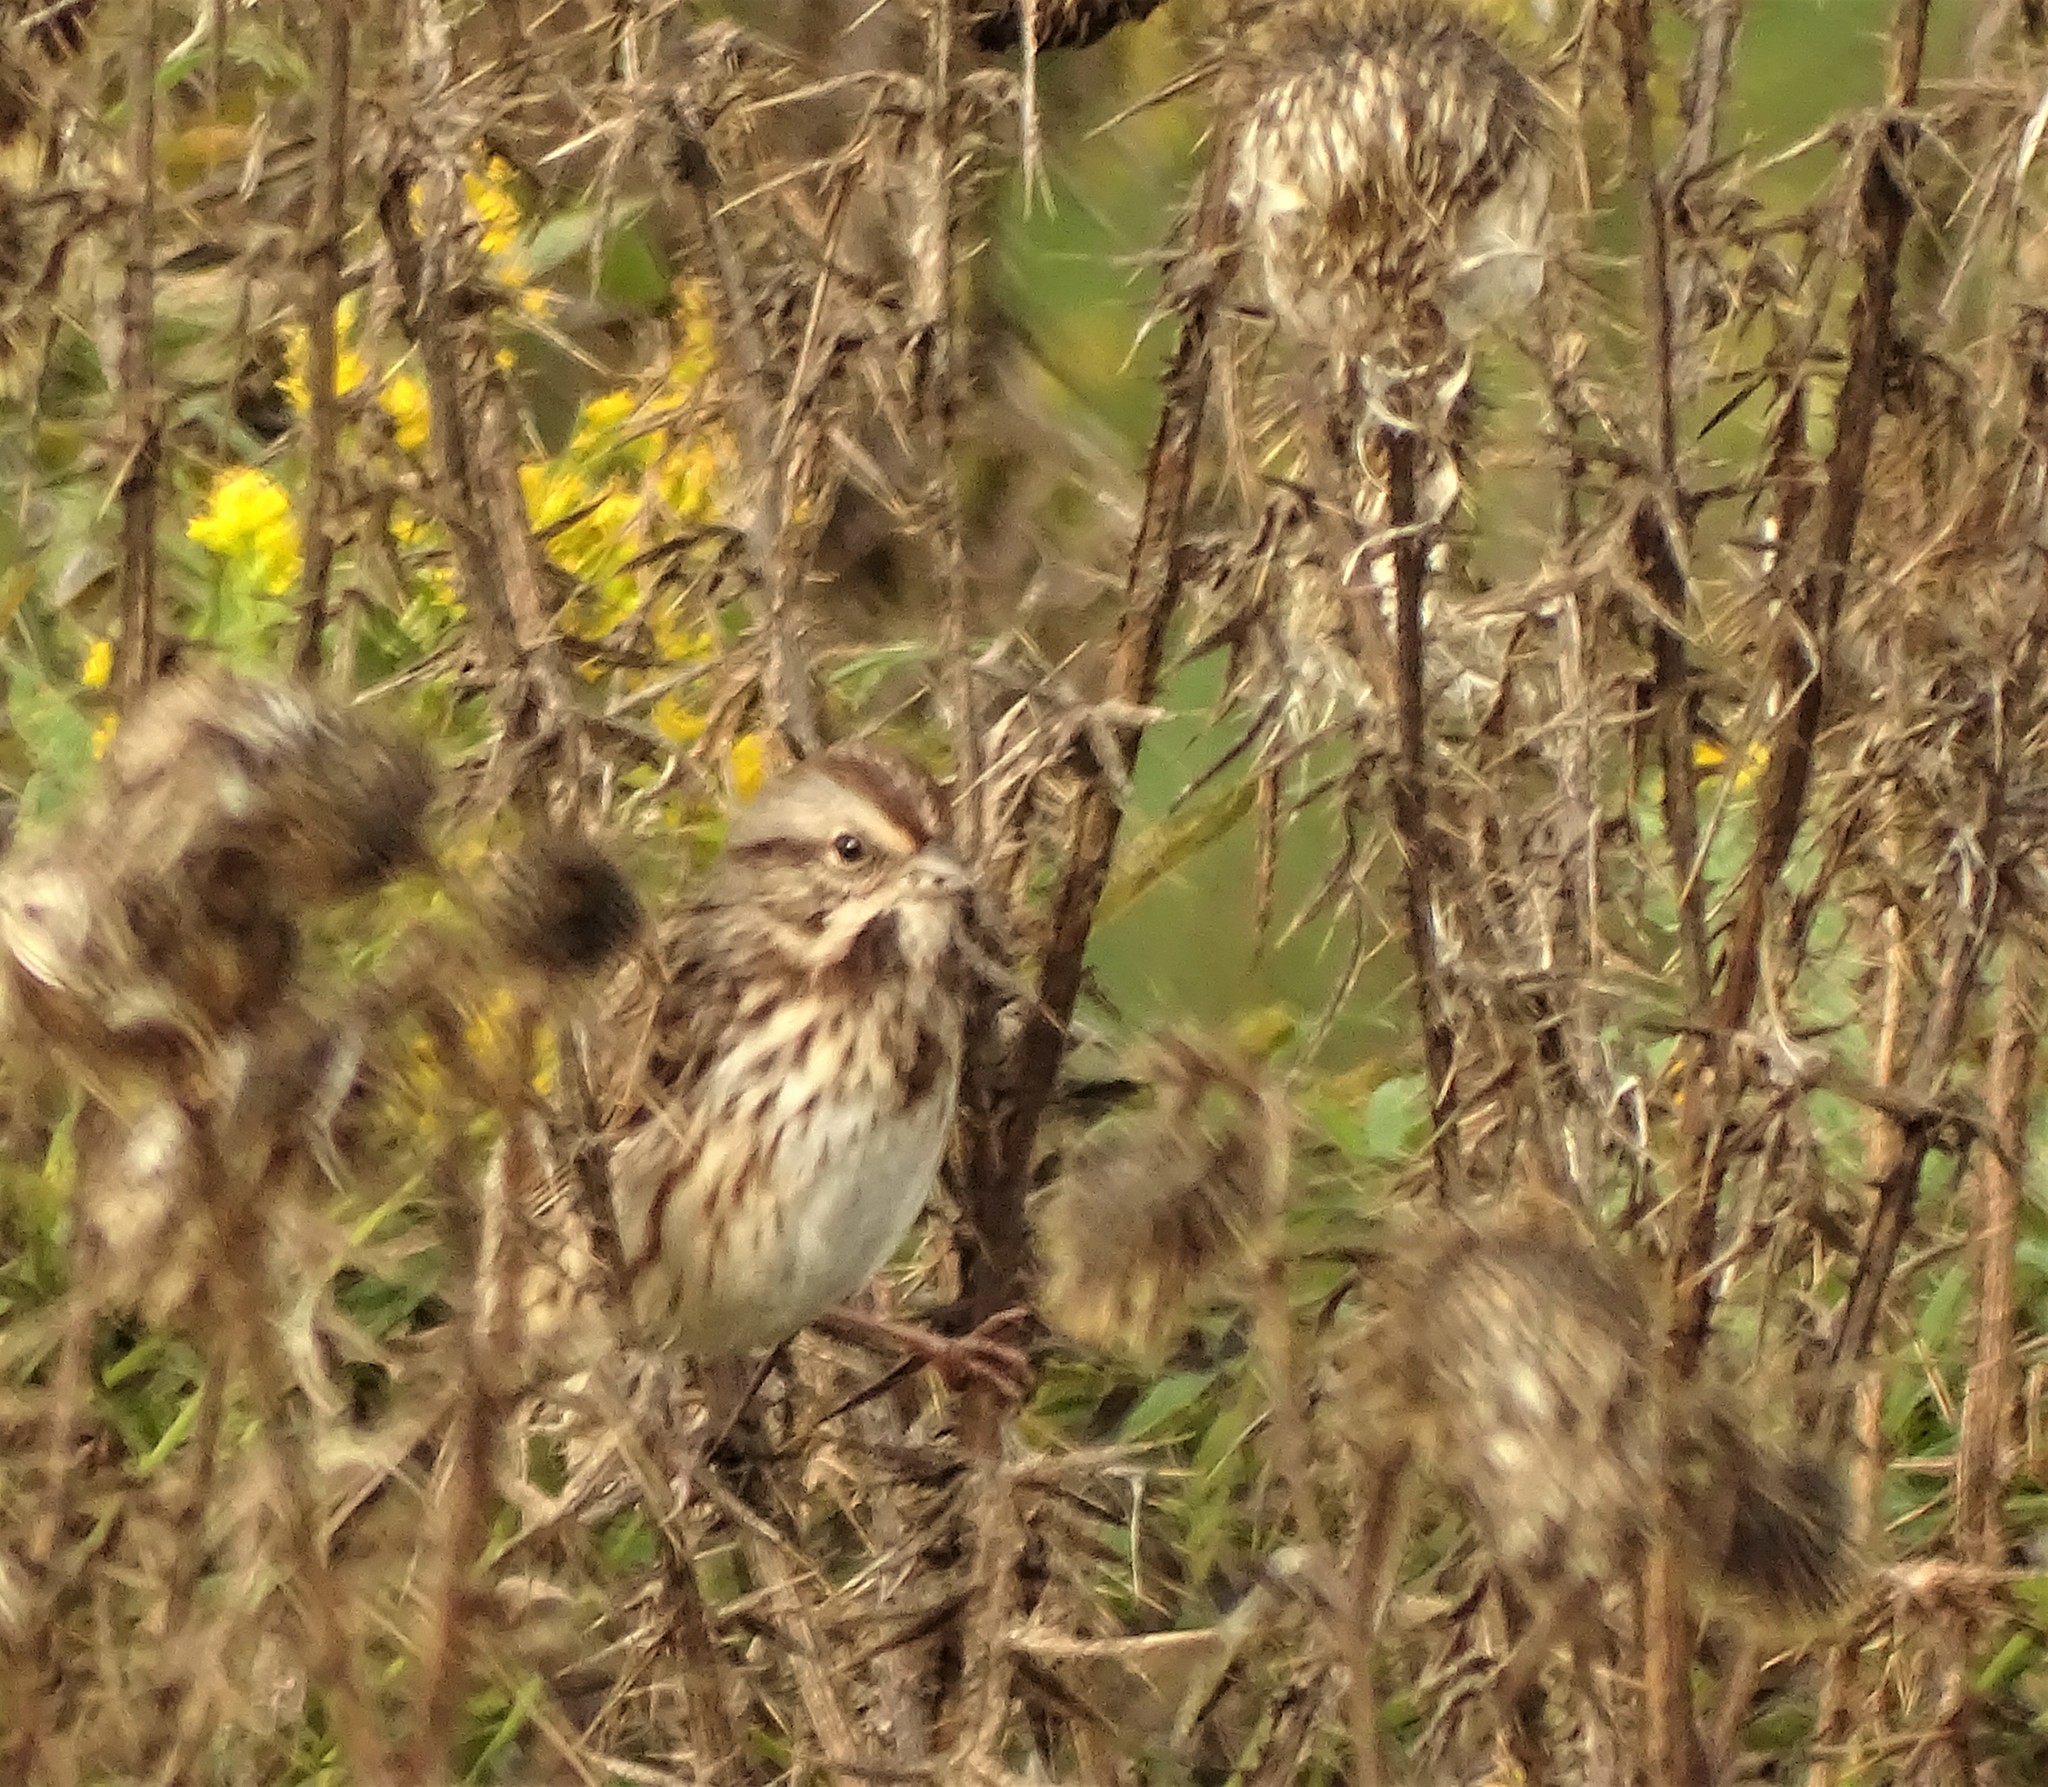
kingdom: Animalia
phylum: Chordata
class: Aves
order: Passeriformes
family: Passerellidae
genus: Melospiza
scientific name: Melospiza melodia
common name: Song sparrow
